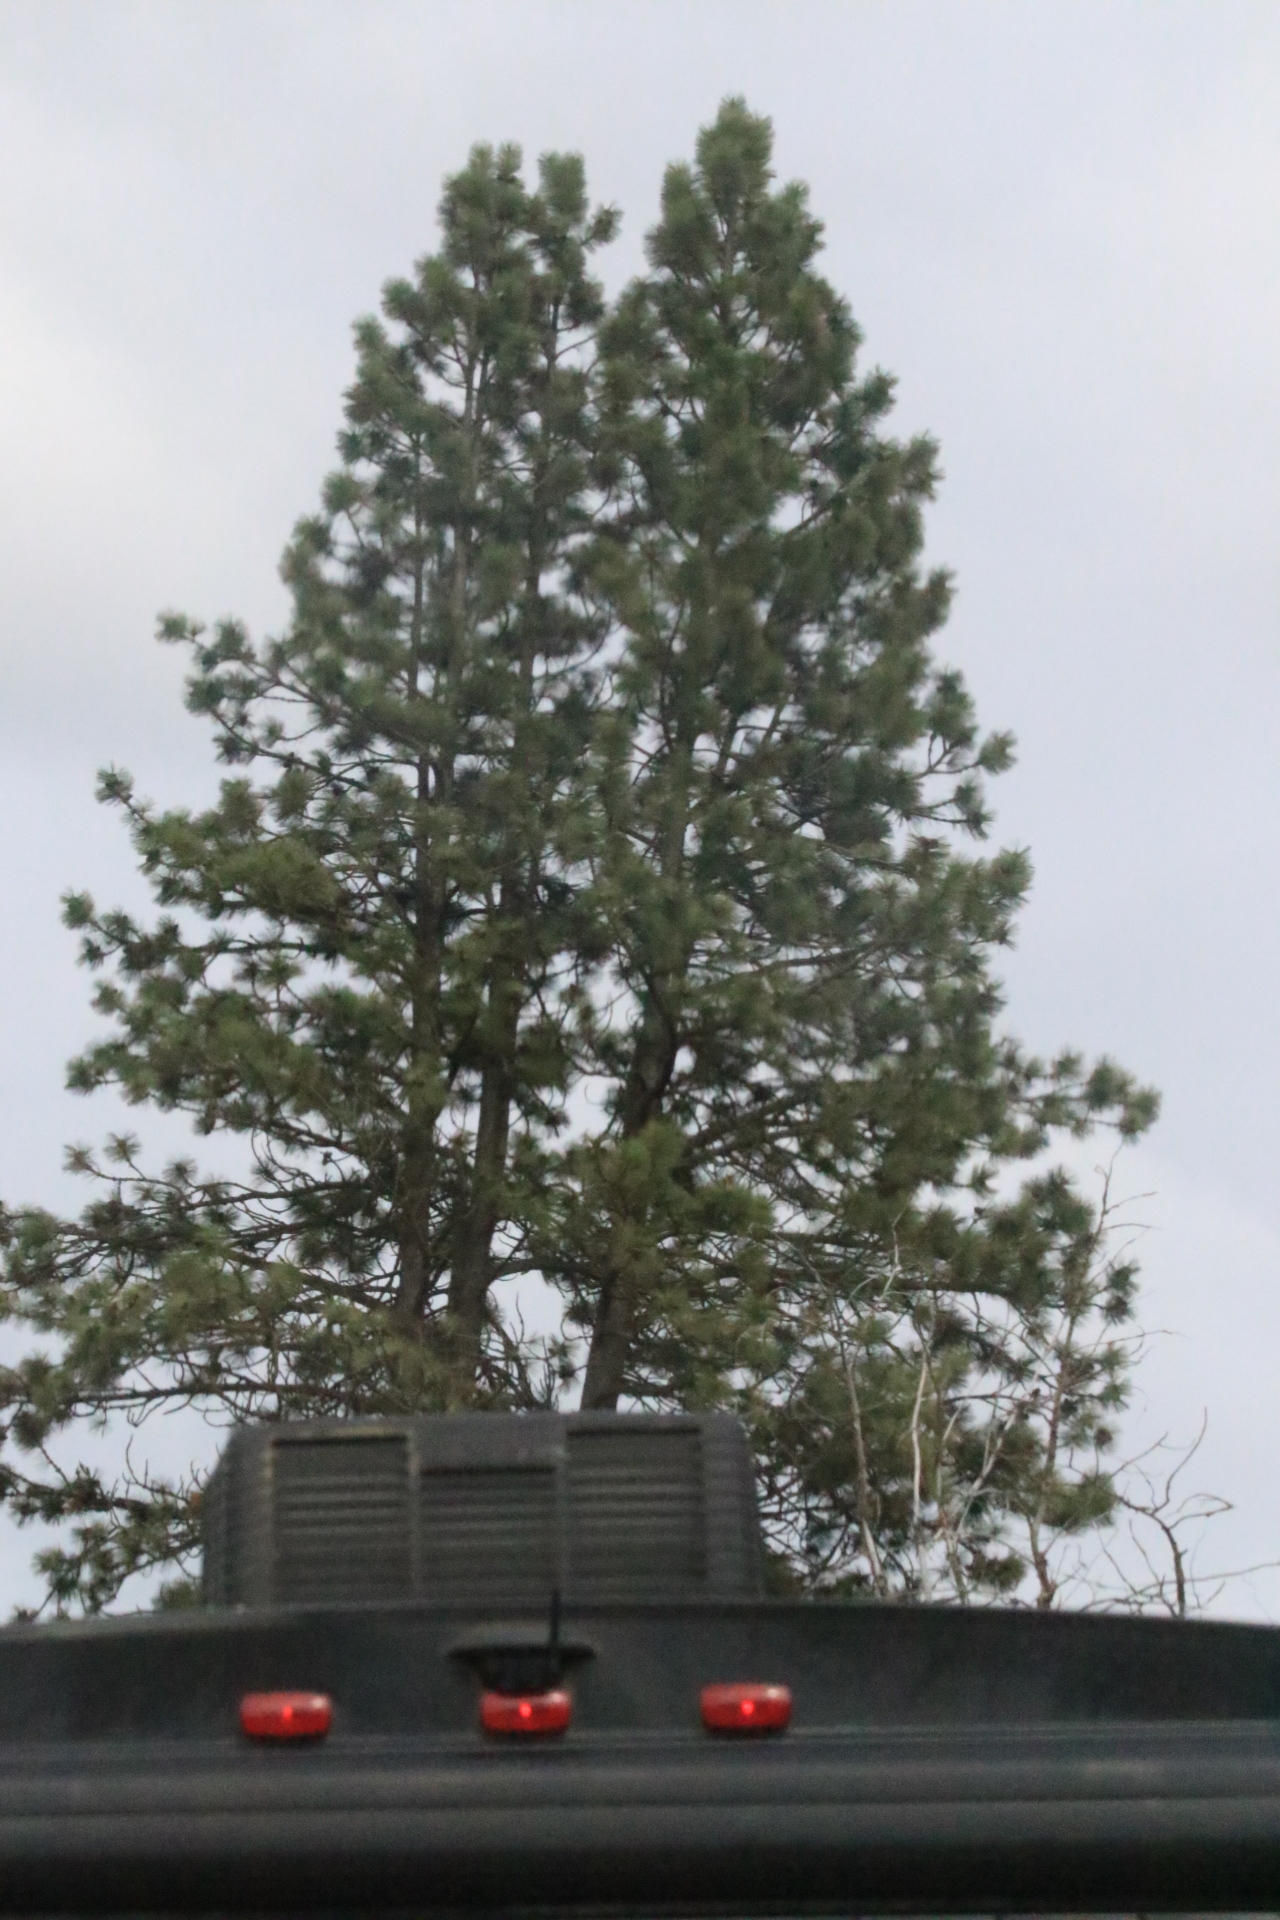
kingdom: Plantae
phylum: Tracheophyta
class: Pinopsida
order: Pinales
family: Pinaceae
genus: Pinus
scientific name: Pinus ponderosa
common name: Western yellow-pine
